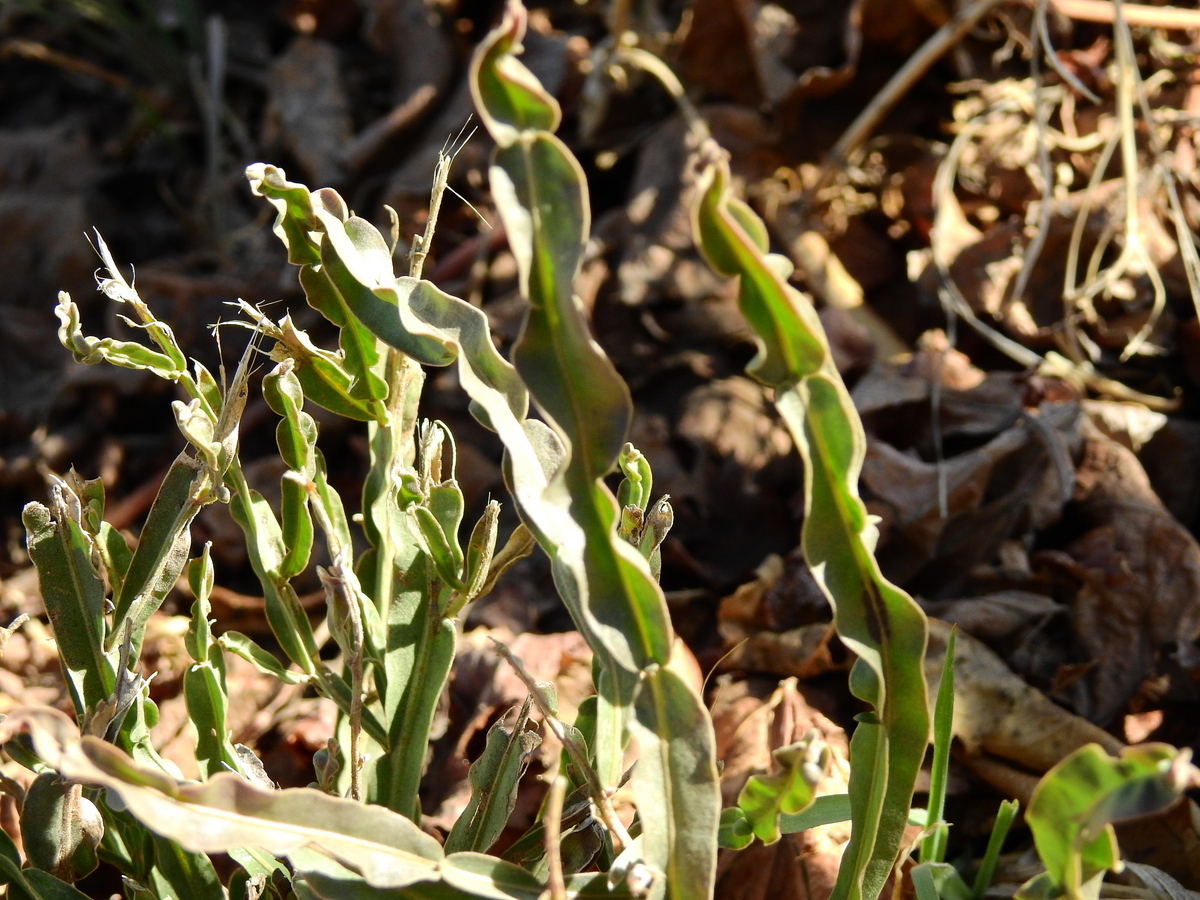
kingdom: Plantae
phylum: Tracheophyta
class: Magnoliopsida
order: Asterales
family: Asteraceae
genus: Baccharis
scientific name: Baccharis crispa
